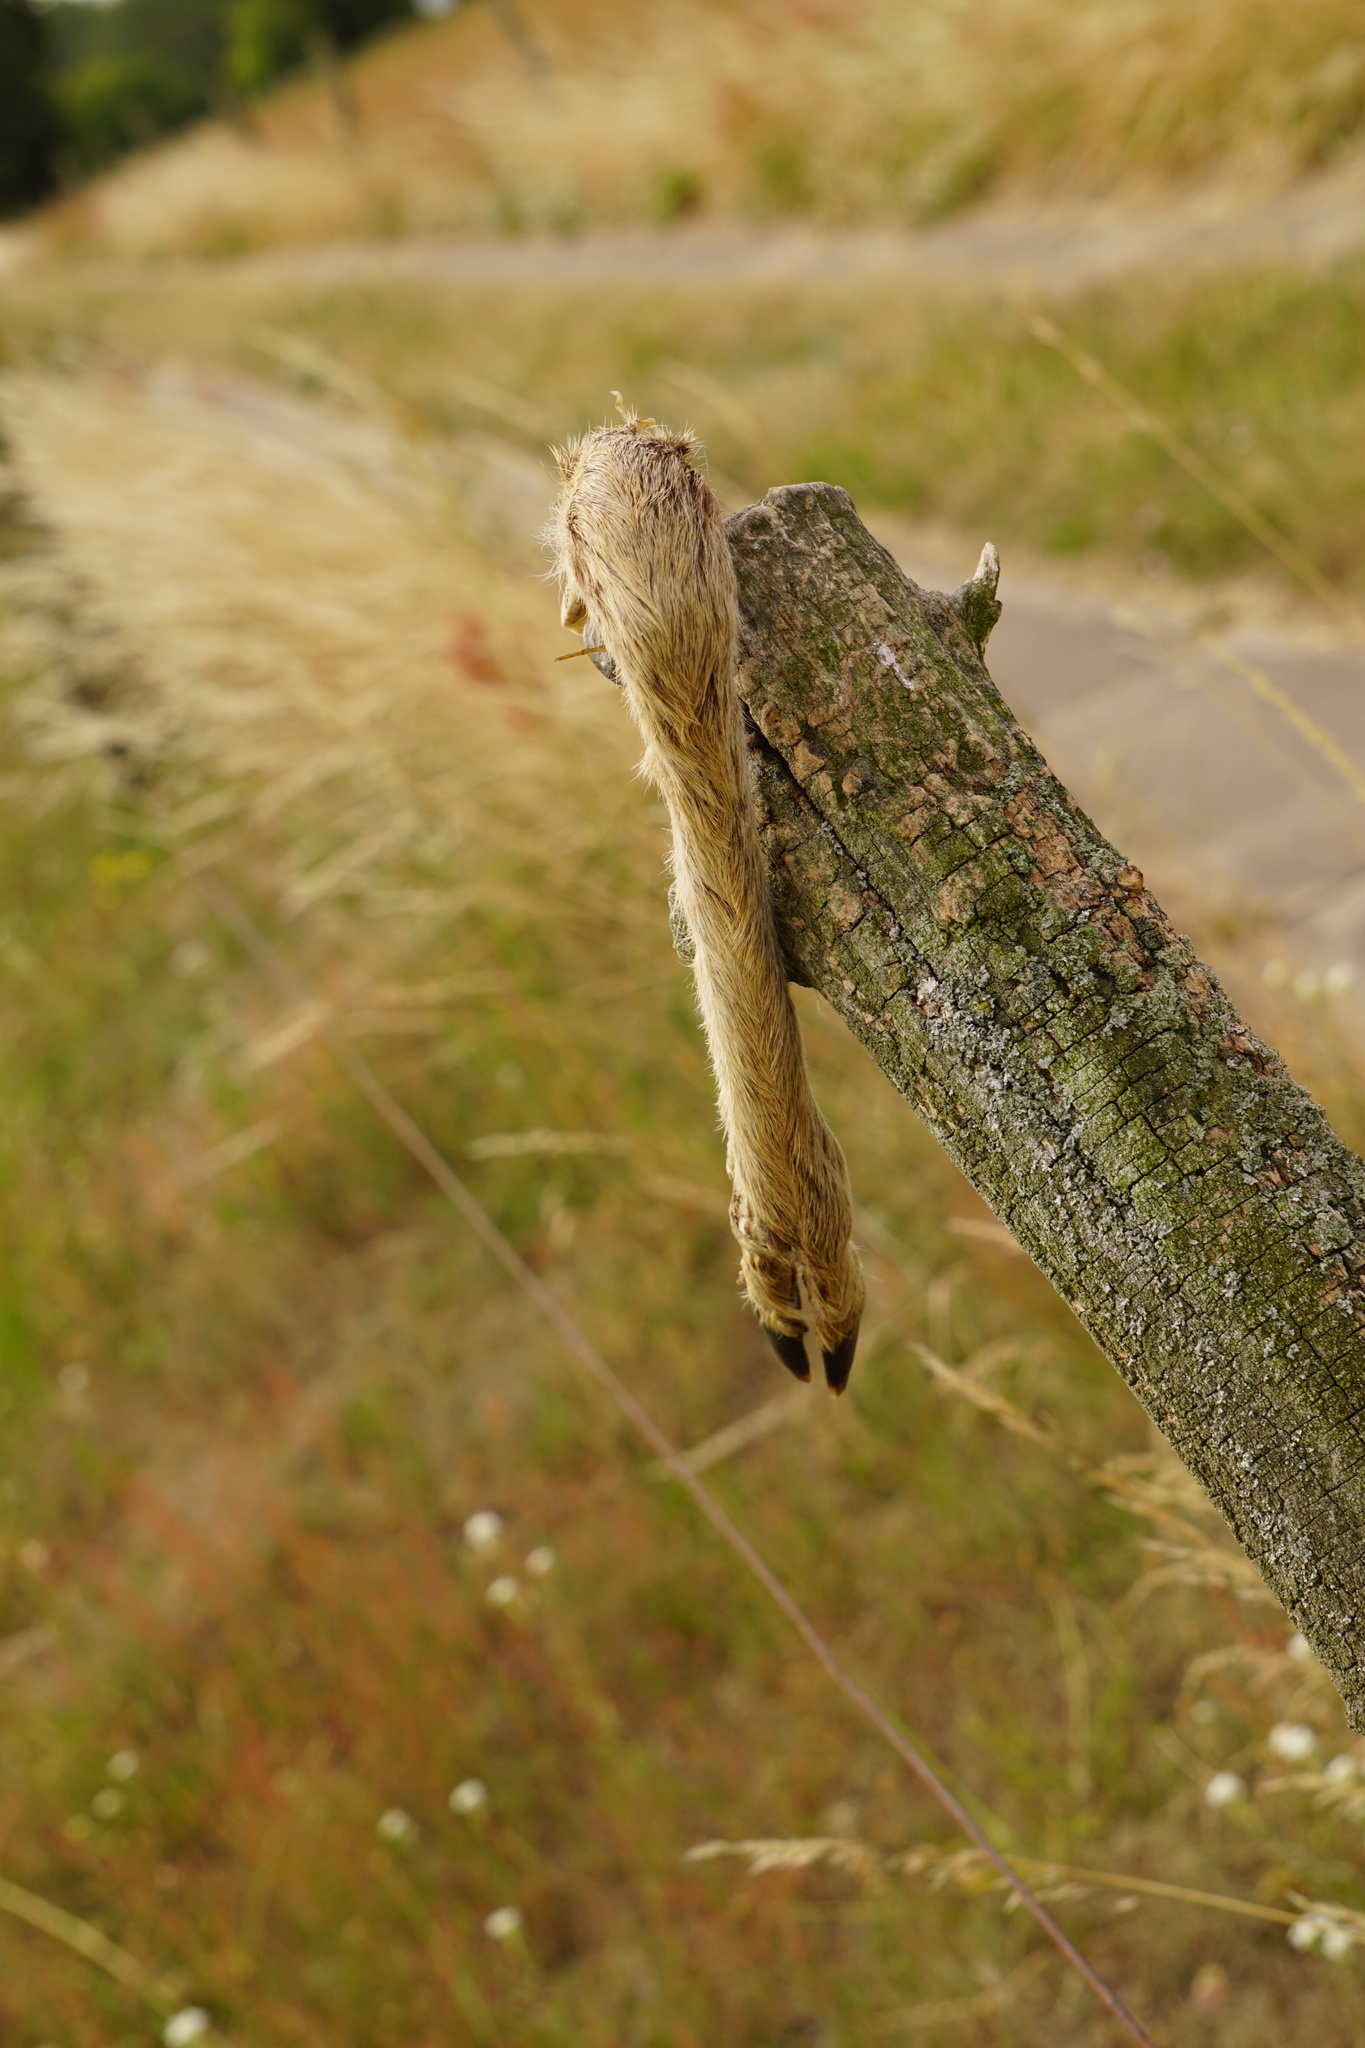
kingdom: Animalia
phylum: Chordata
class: Mammalia
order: Artiodactyla
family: Cervidae
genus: Capreolus
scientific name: Capreolus capreolus
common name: Western roe deer
